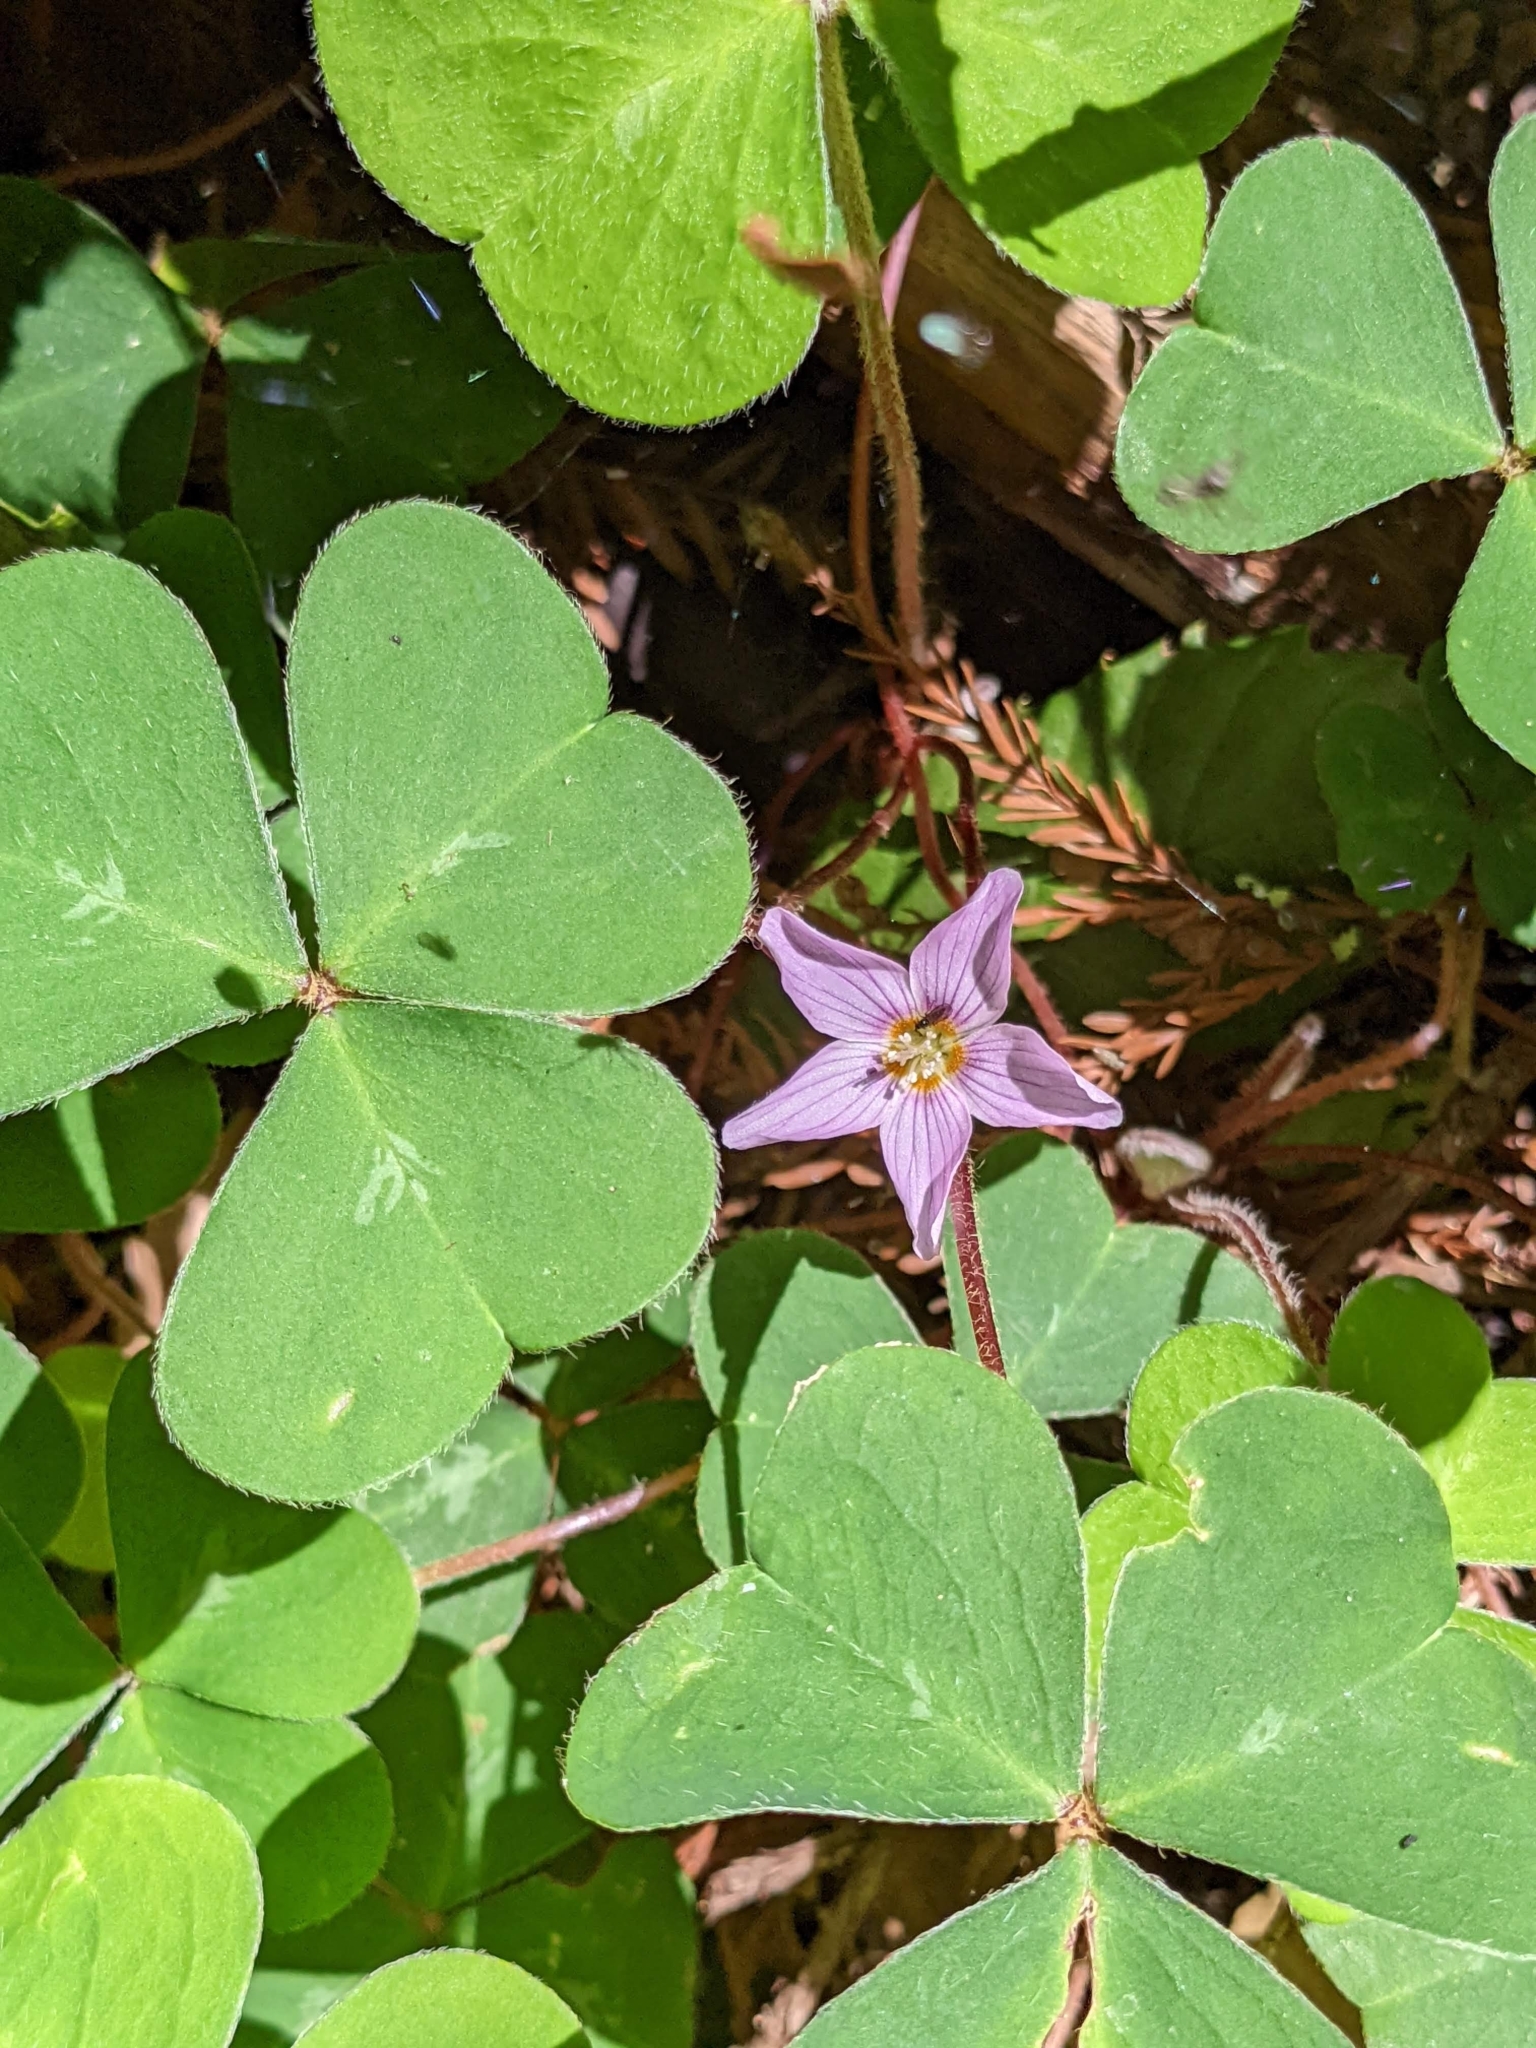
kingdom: Plantae
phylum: Tracheophyta
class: Magnoliopsida
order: Oxalidales
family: Oxalidaceae
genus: Oxalis
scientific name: Oxalis oregana
